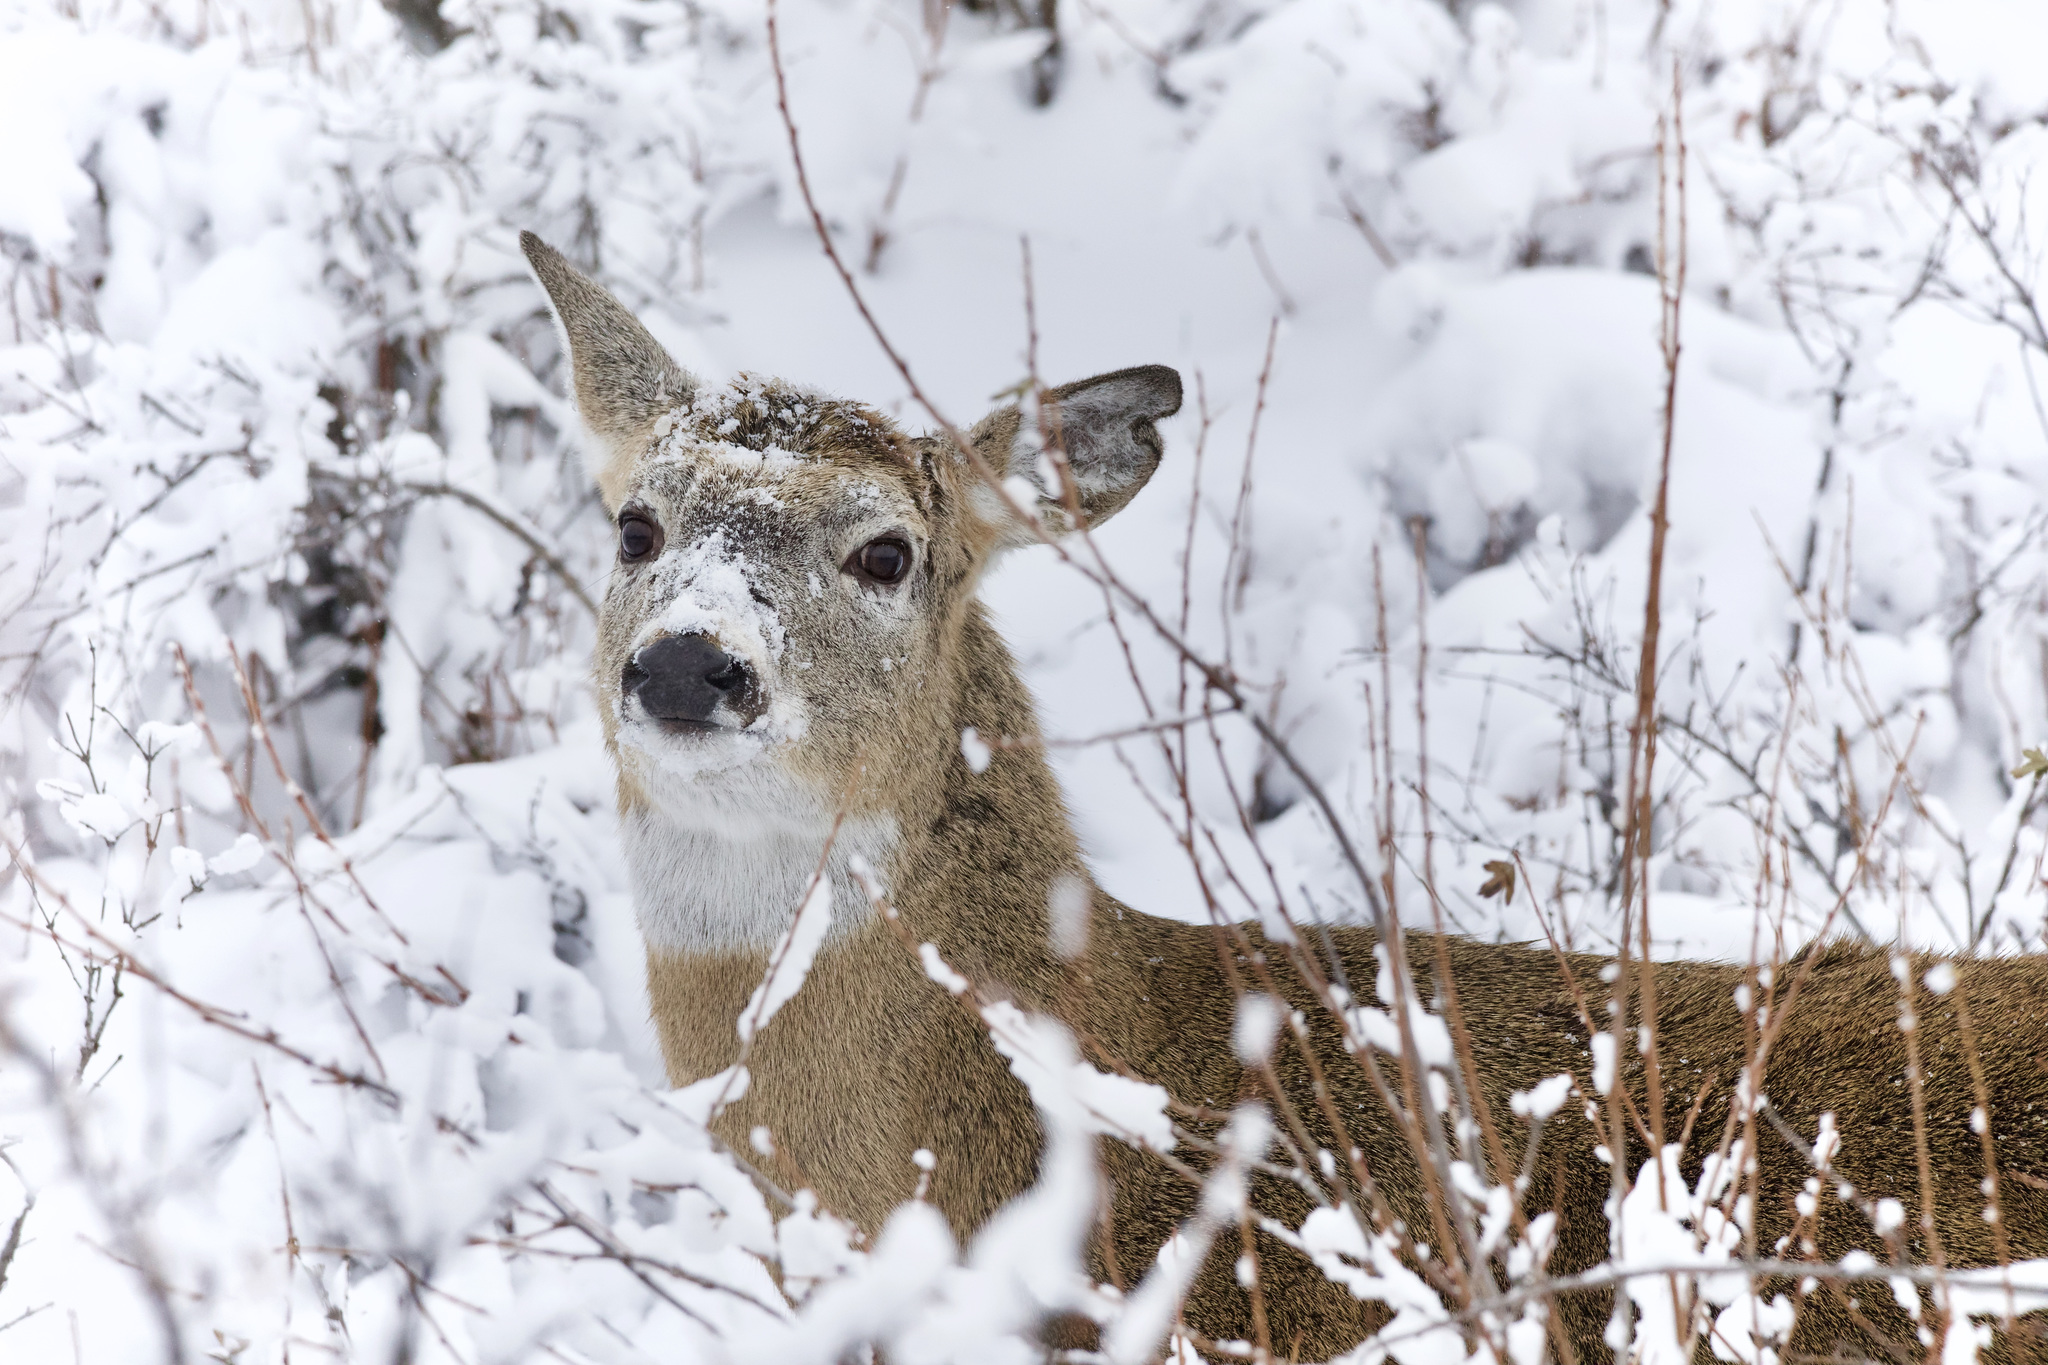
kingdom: Animalia
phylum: Chordata
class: Mammalia
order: Artiodactyla
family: Cervidae
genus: Odocoileus
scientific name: Odocoileus virginianus
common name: White-tailed deer
